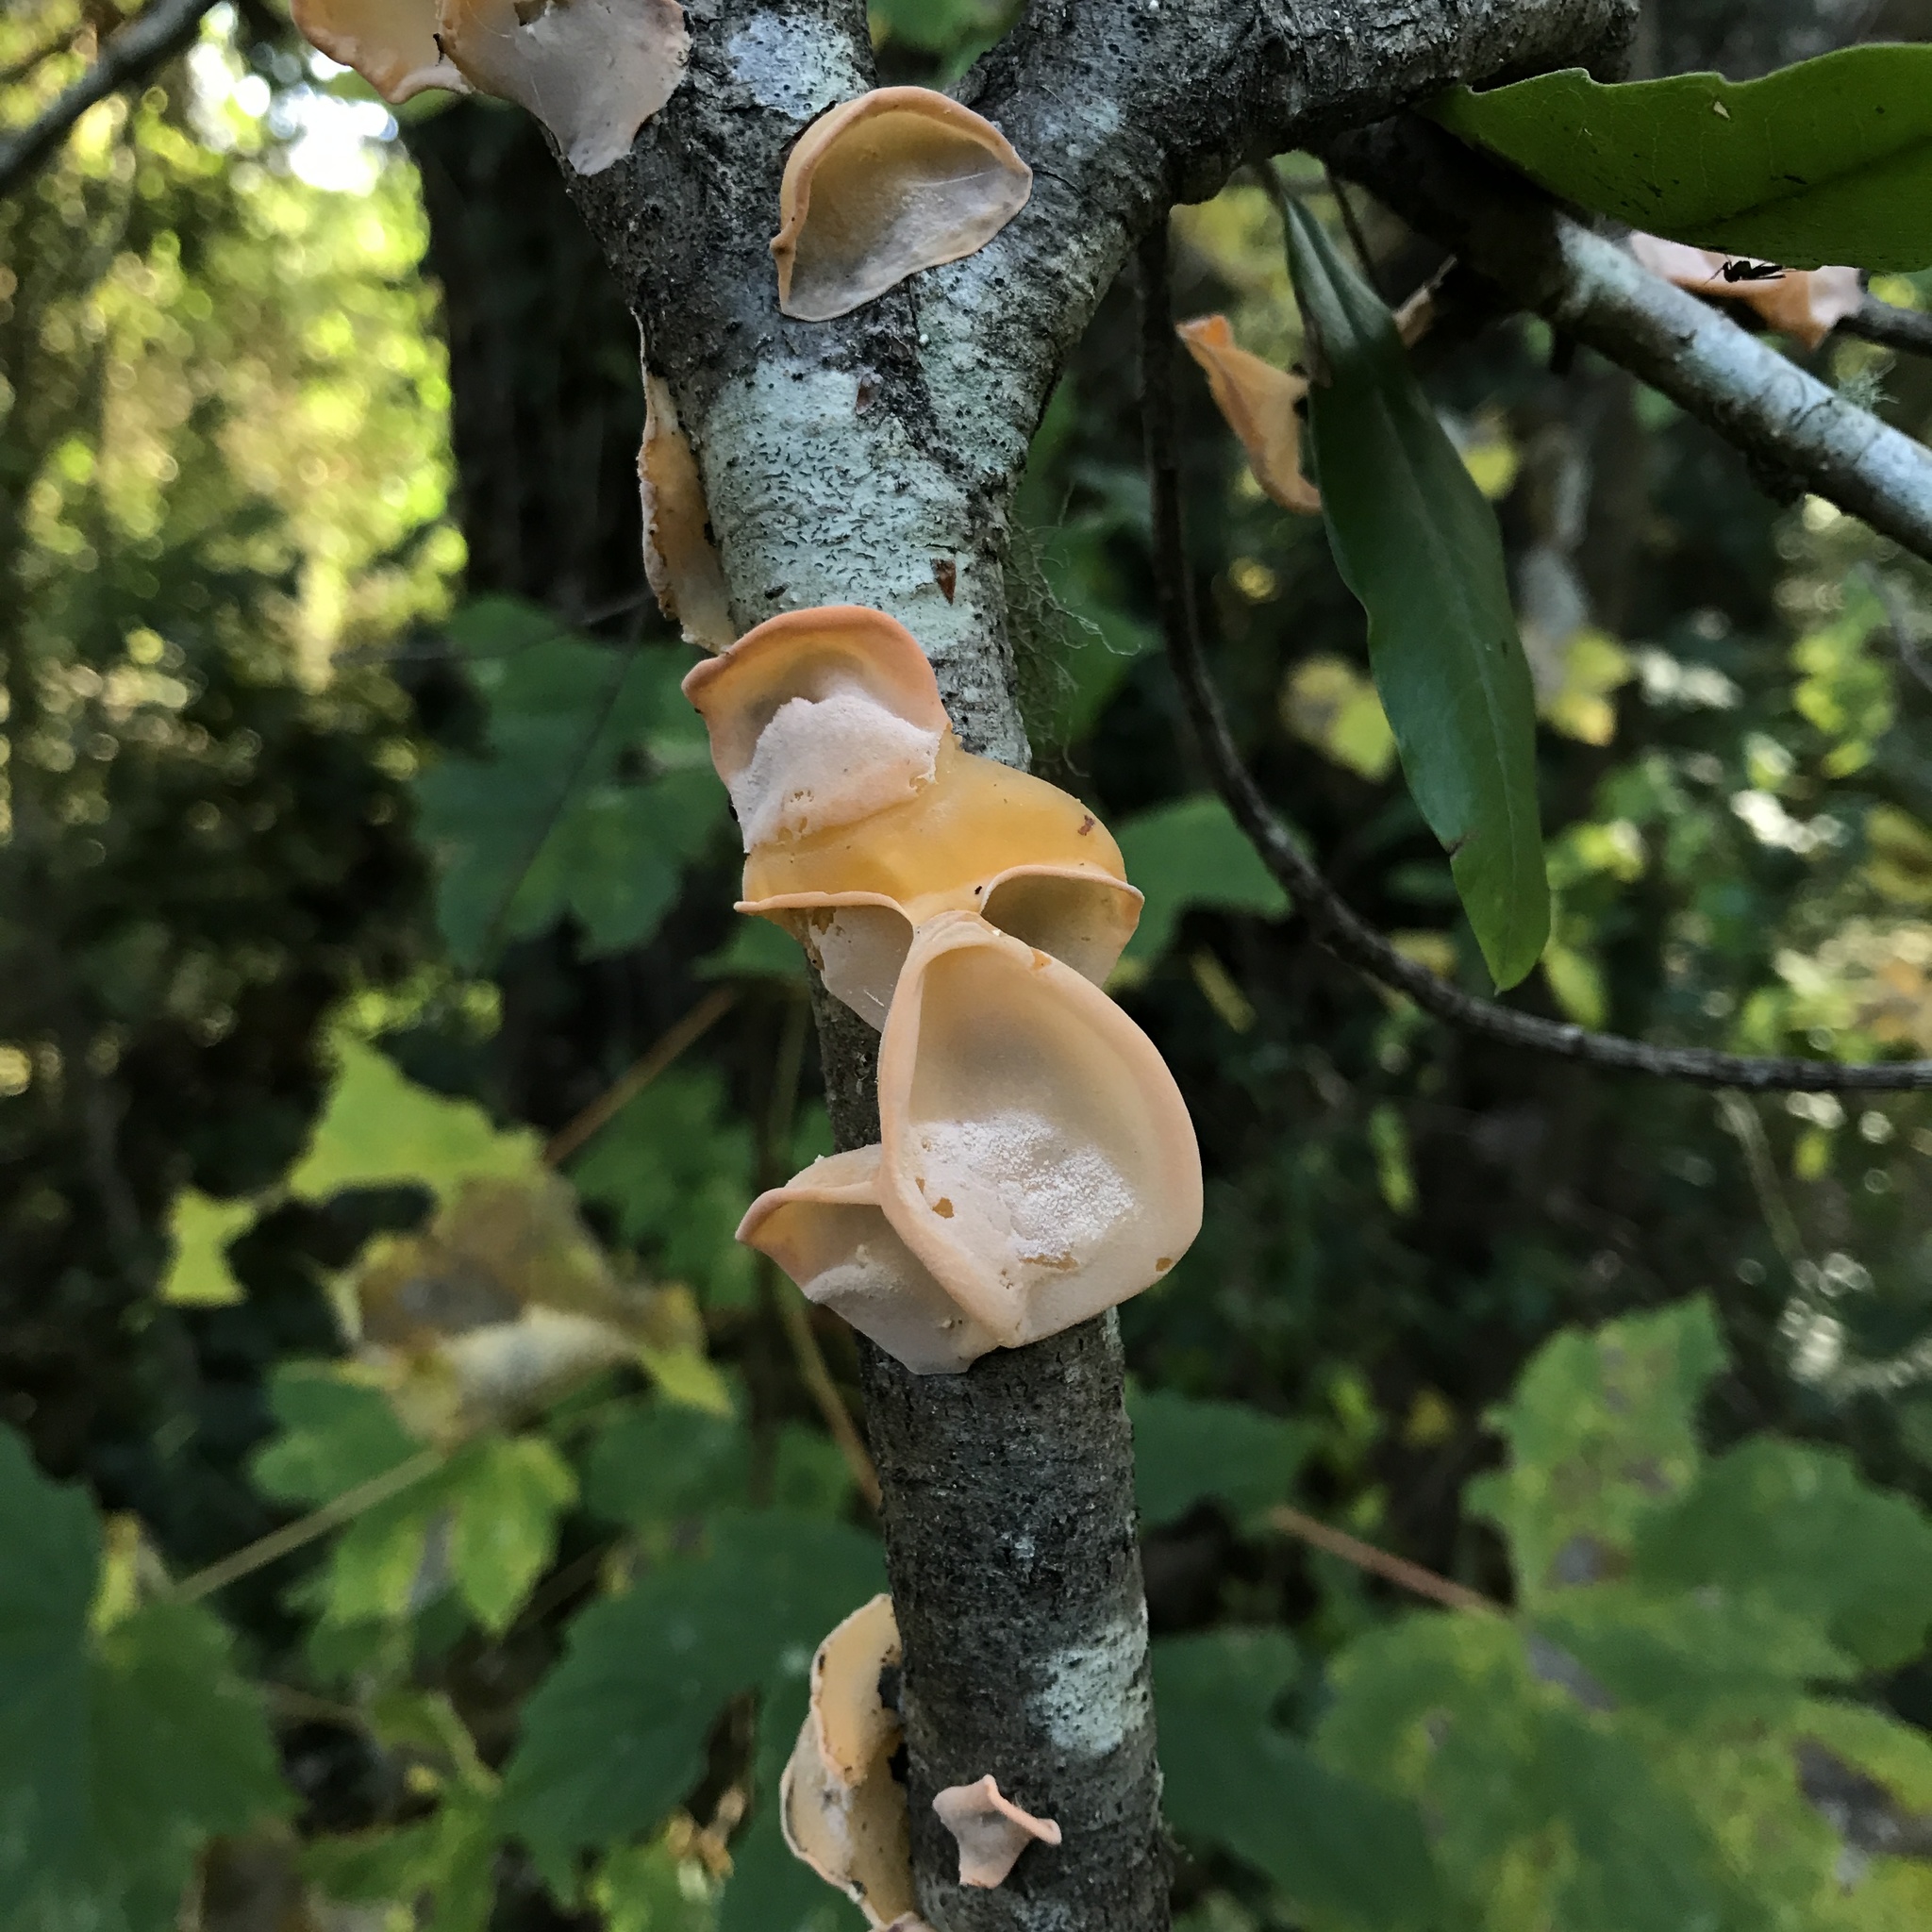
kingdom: Fungi
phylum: Basidiomycota
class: Agaricomycetes
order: Russulales
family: Stereaceae
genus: Aleurodiscus
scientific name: Aleurodiscus vitellinus
